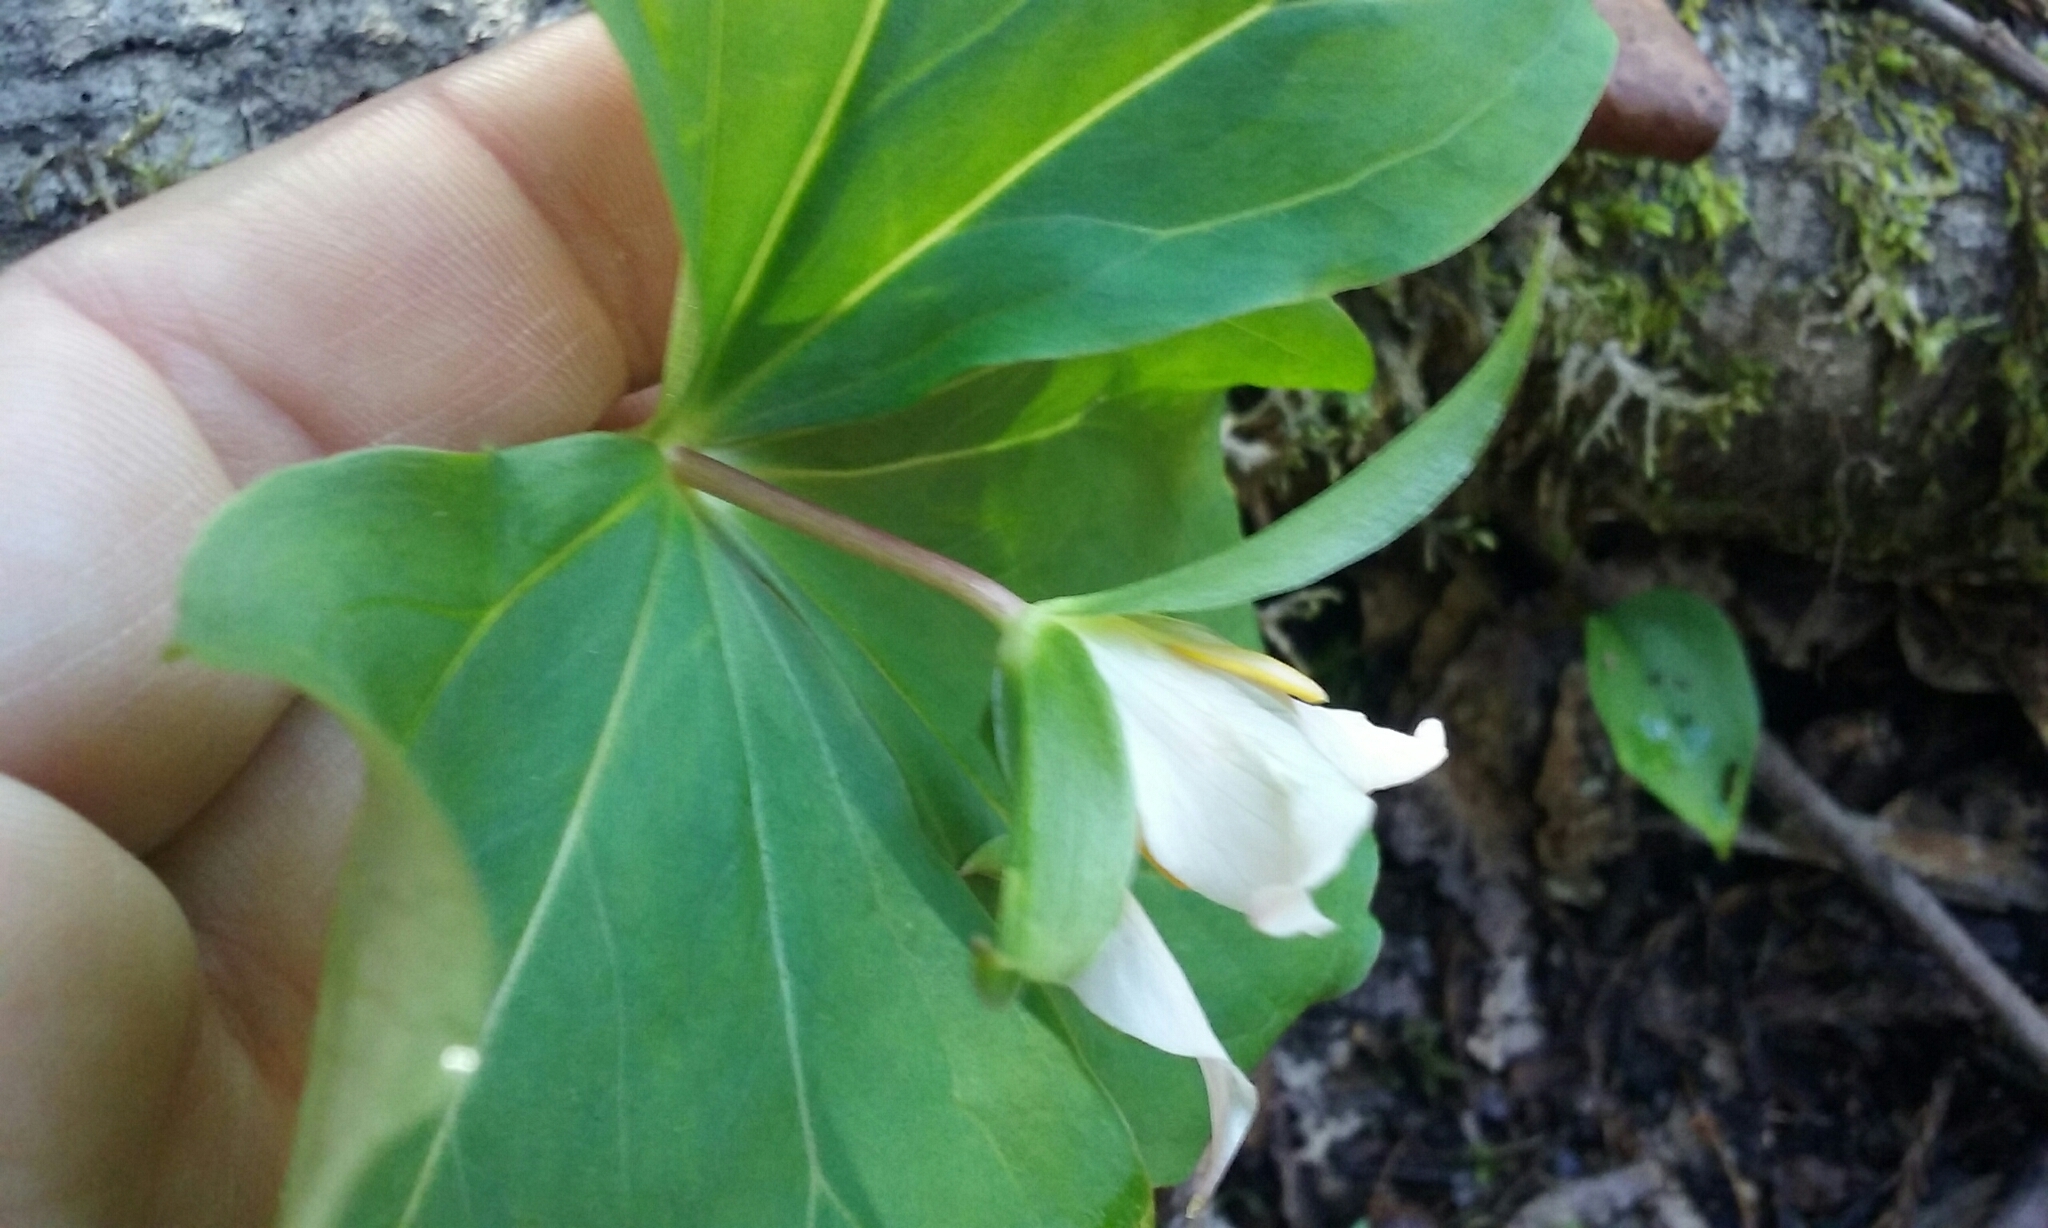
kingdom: Plantae
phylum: Tracheophyta
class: Liliopsida
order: Liliales
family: Melanthiaceae
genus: Trillium
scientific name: Trillium ovatum
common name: Pacific trillium
